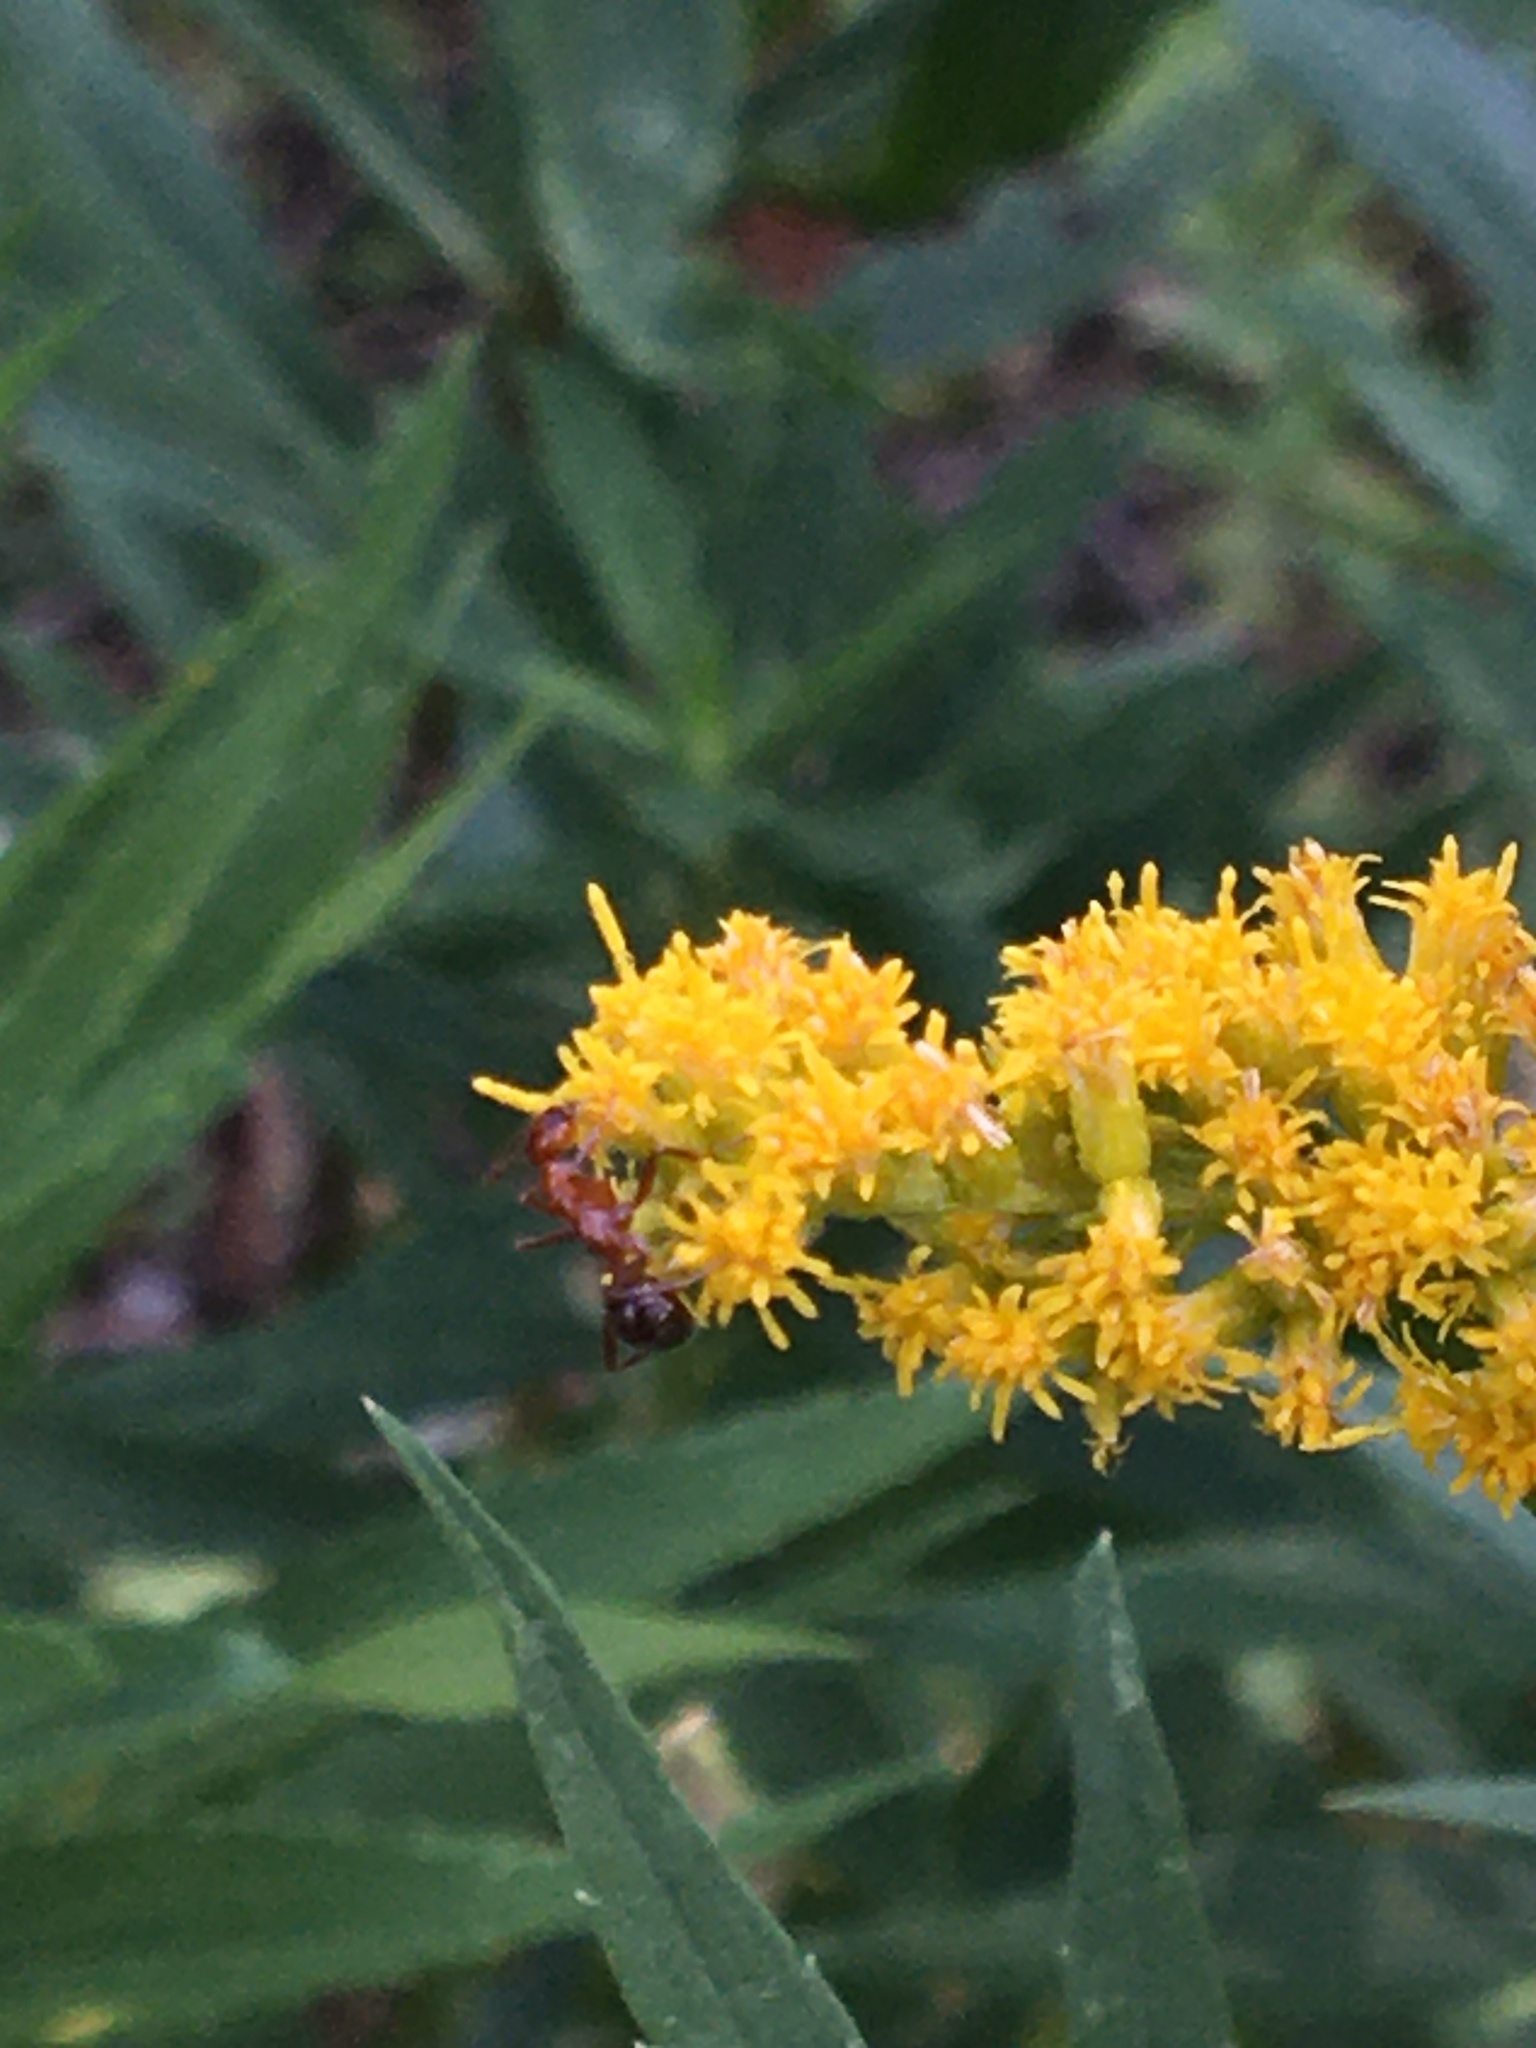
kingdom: Animalia
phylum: Arthropoda
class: Insecta
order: Hymenoptera
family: Formicidae
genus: Formica
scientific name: Formica
